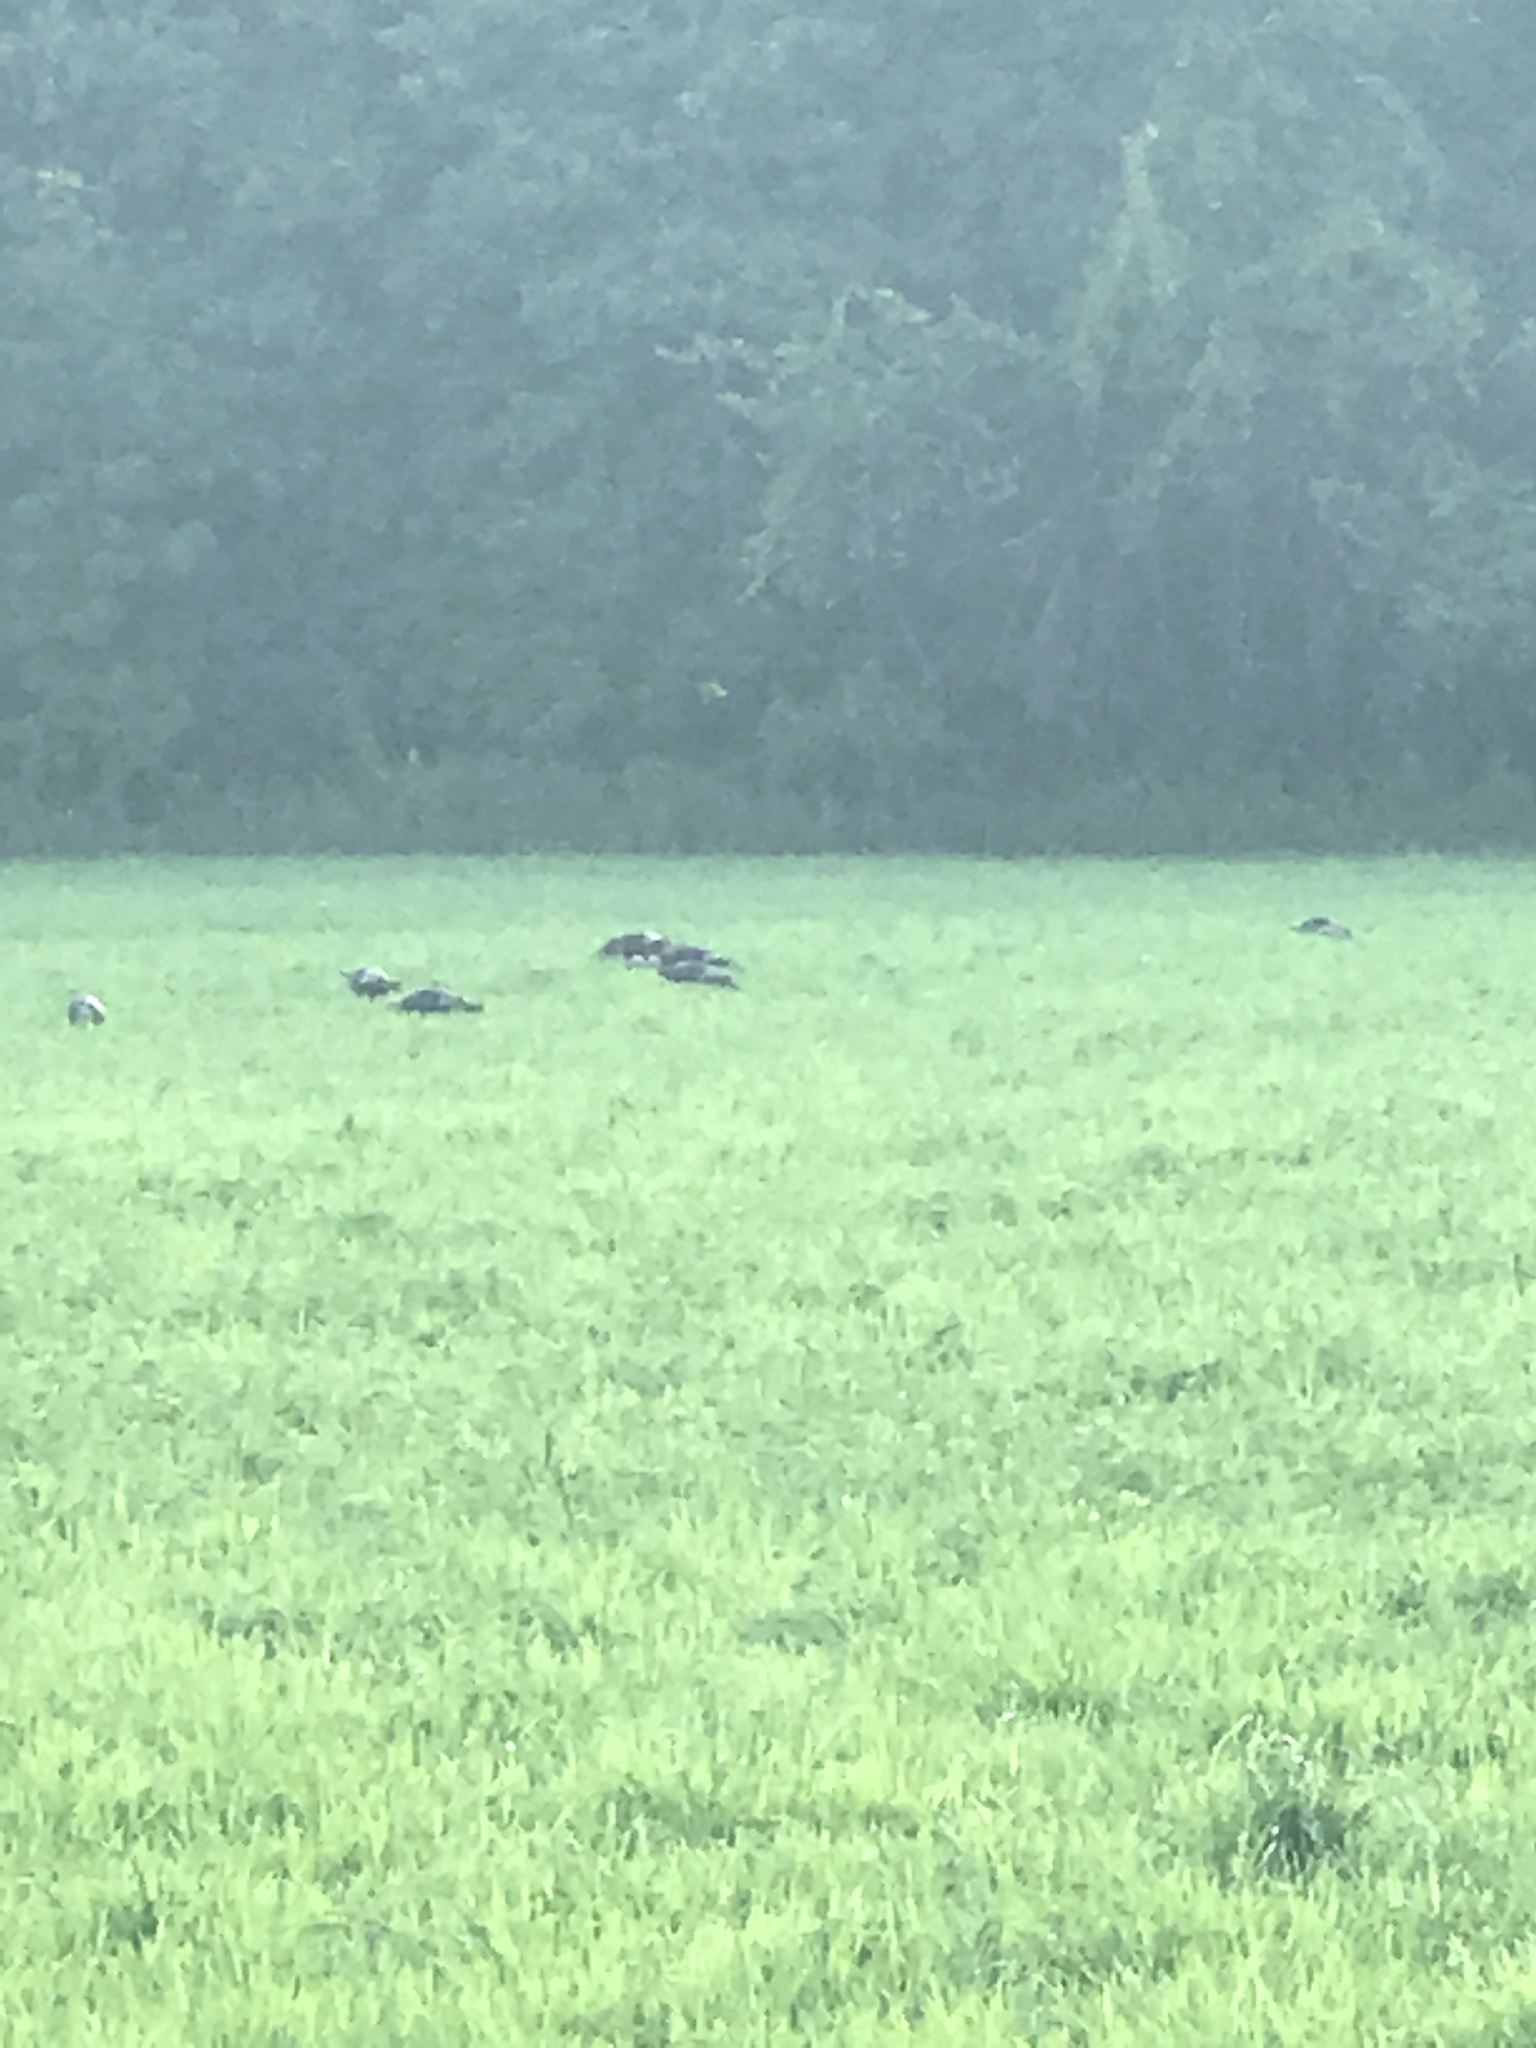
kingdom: Animalia
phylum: Chordata
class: Aves
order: Galliformes
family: Phasianidae
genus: Meleagris
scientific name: Meleagris gallopavo
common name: Wild turkey
